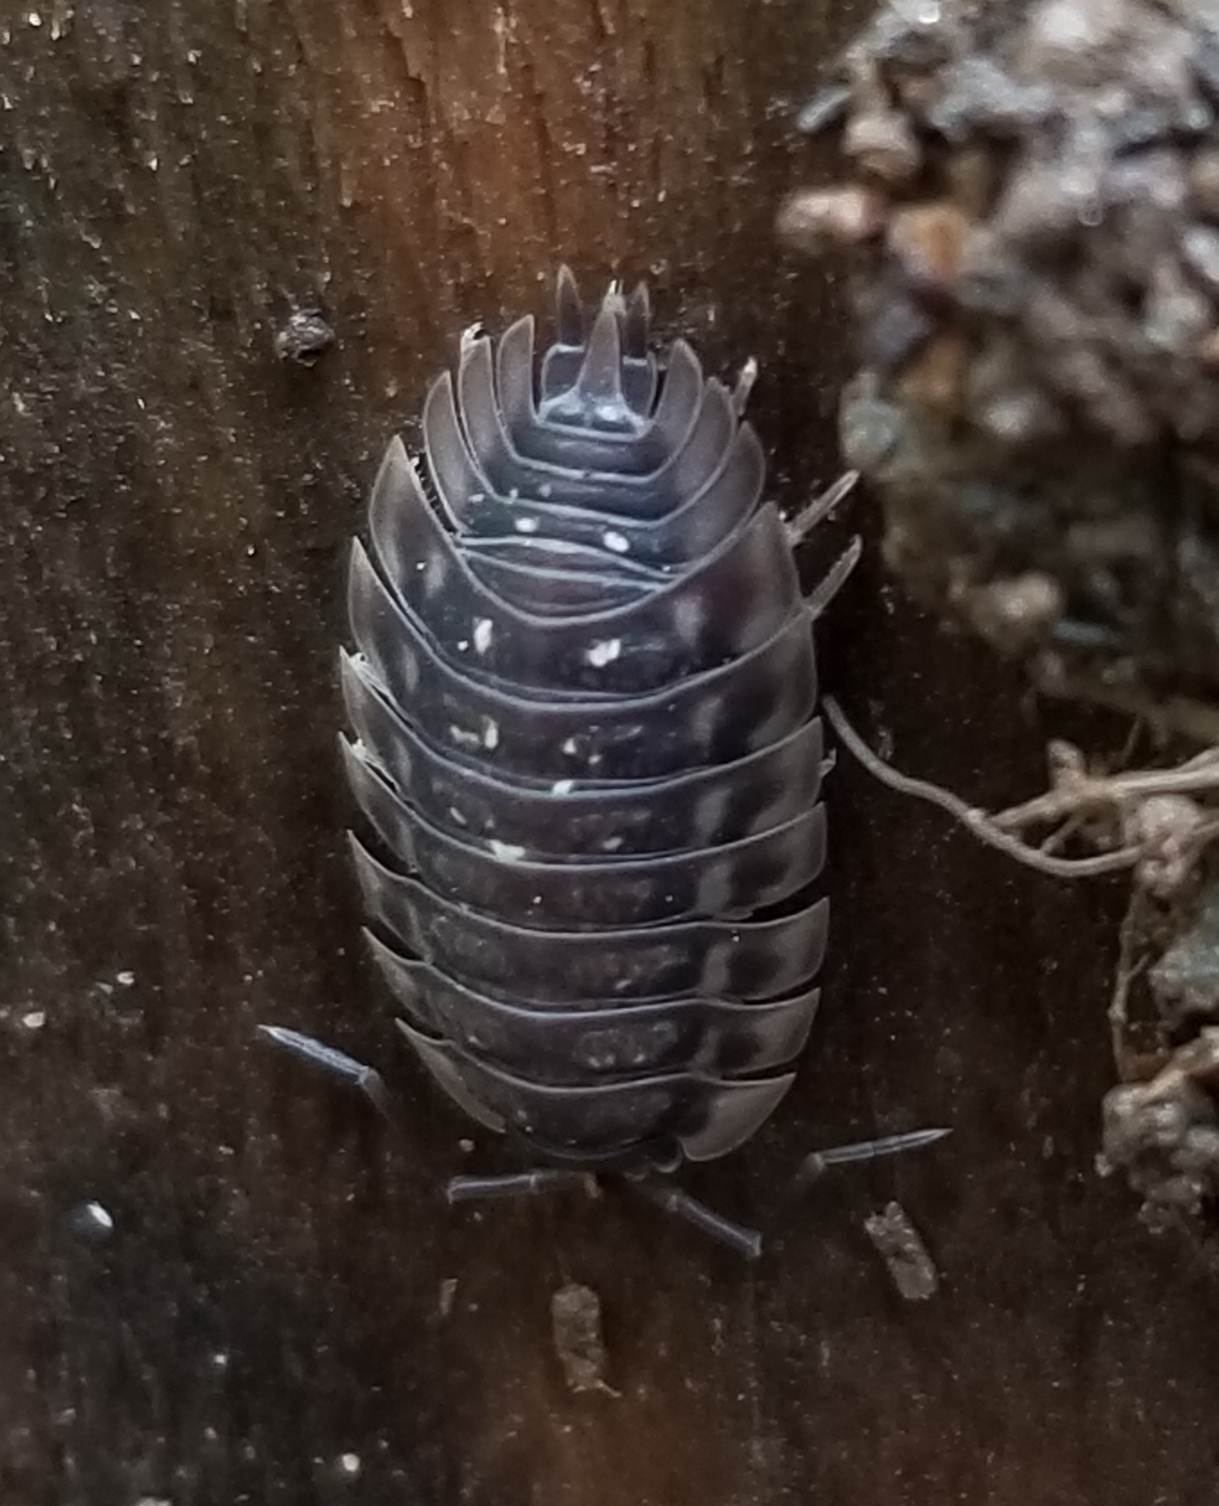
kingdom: Animalia
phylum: Arthropoda
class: Malacostraca
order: Isopoda
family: Oniscidae
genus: Oniscus
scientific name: Oniscus asellus
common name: Common shiny woodlouse
